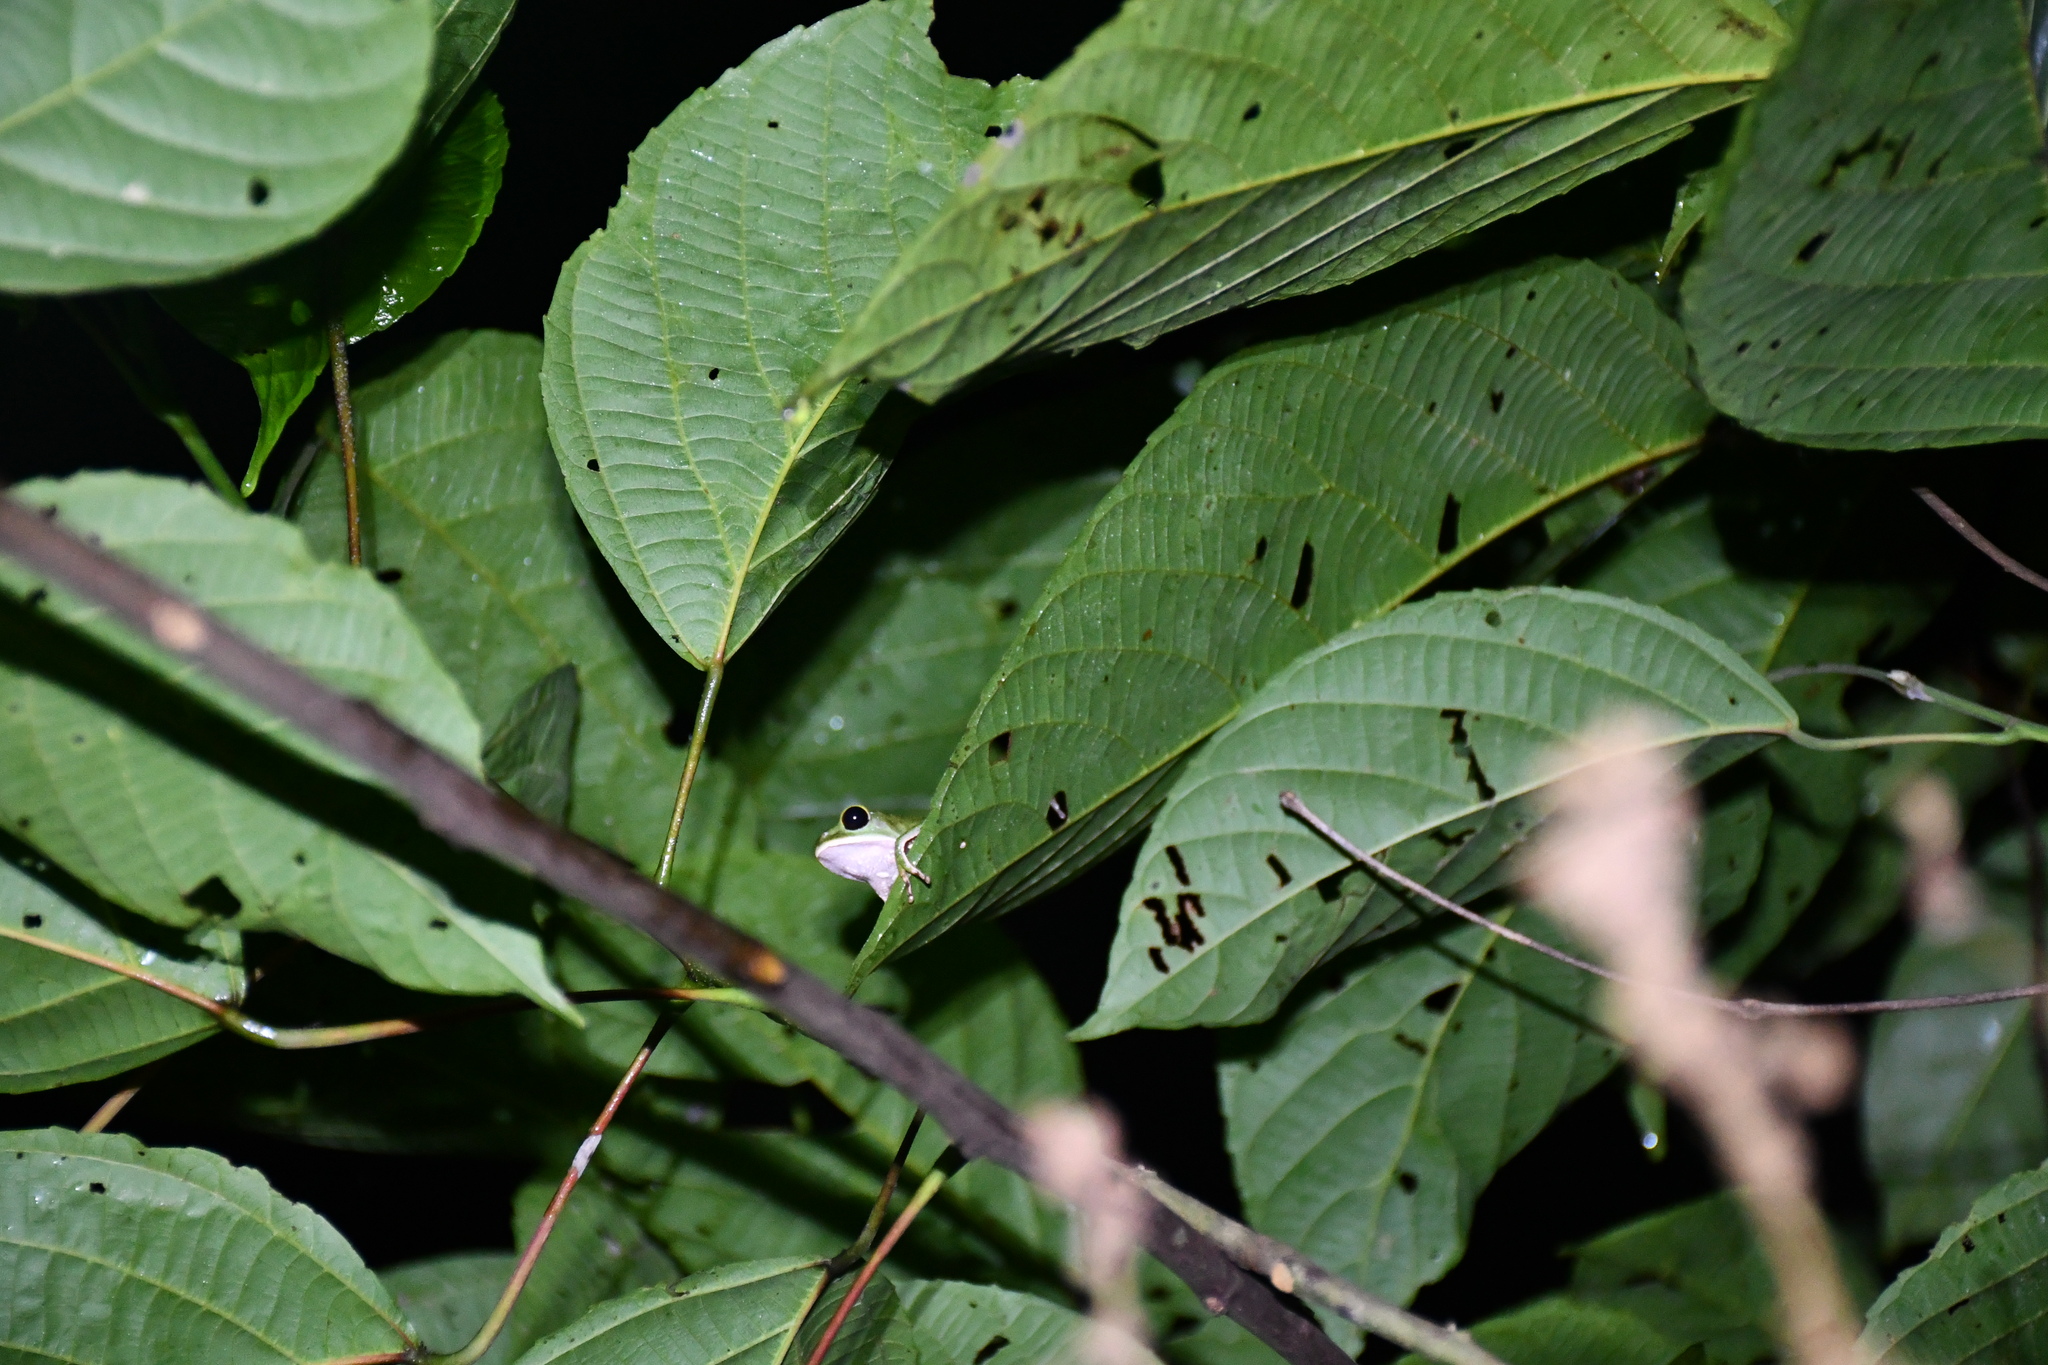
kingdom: Animalia
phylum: Chordata
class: Amphibia
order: Anura
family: Phyllomedusidae
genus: Phyllomedusa
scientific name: Phyllomedusa vaillantii
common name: White-lined leaf frog
